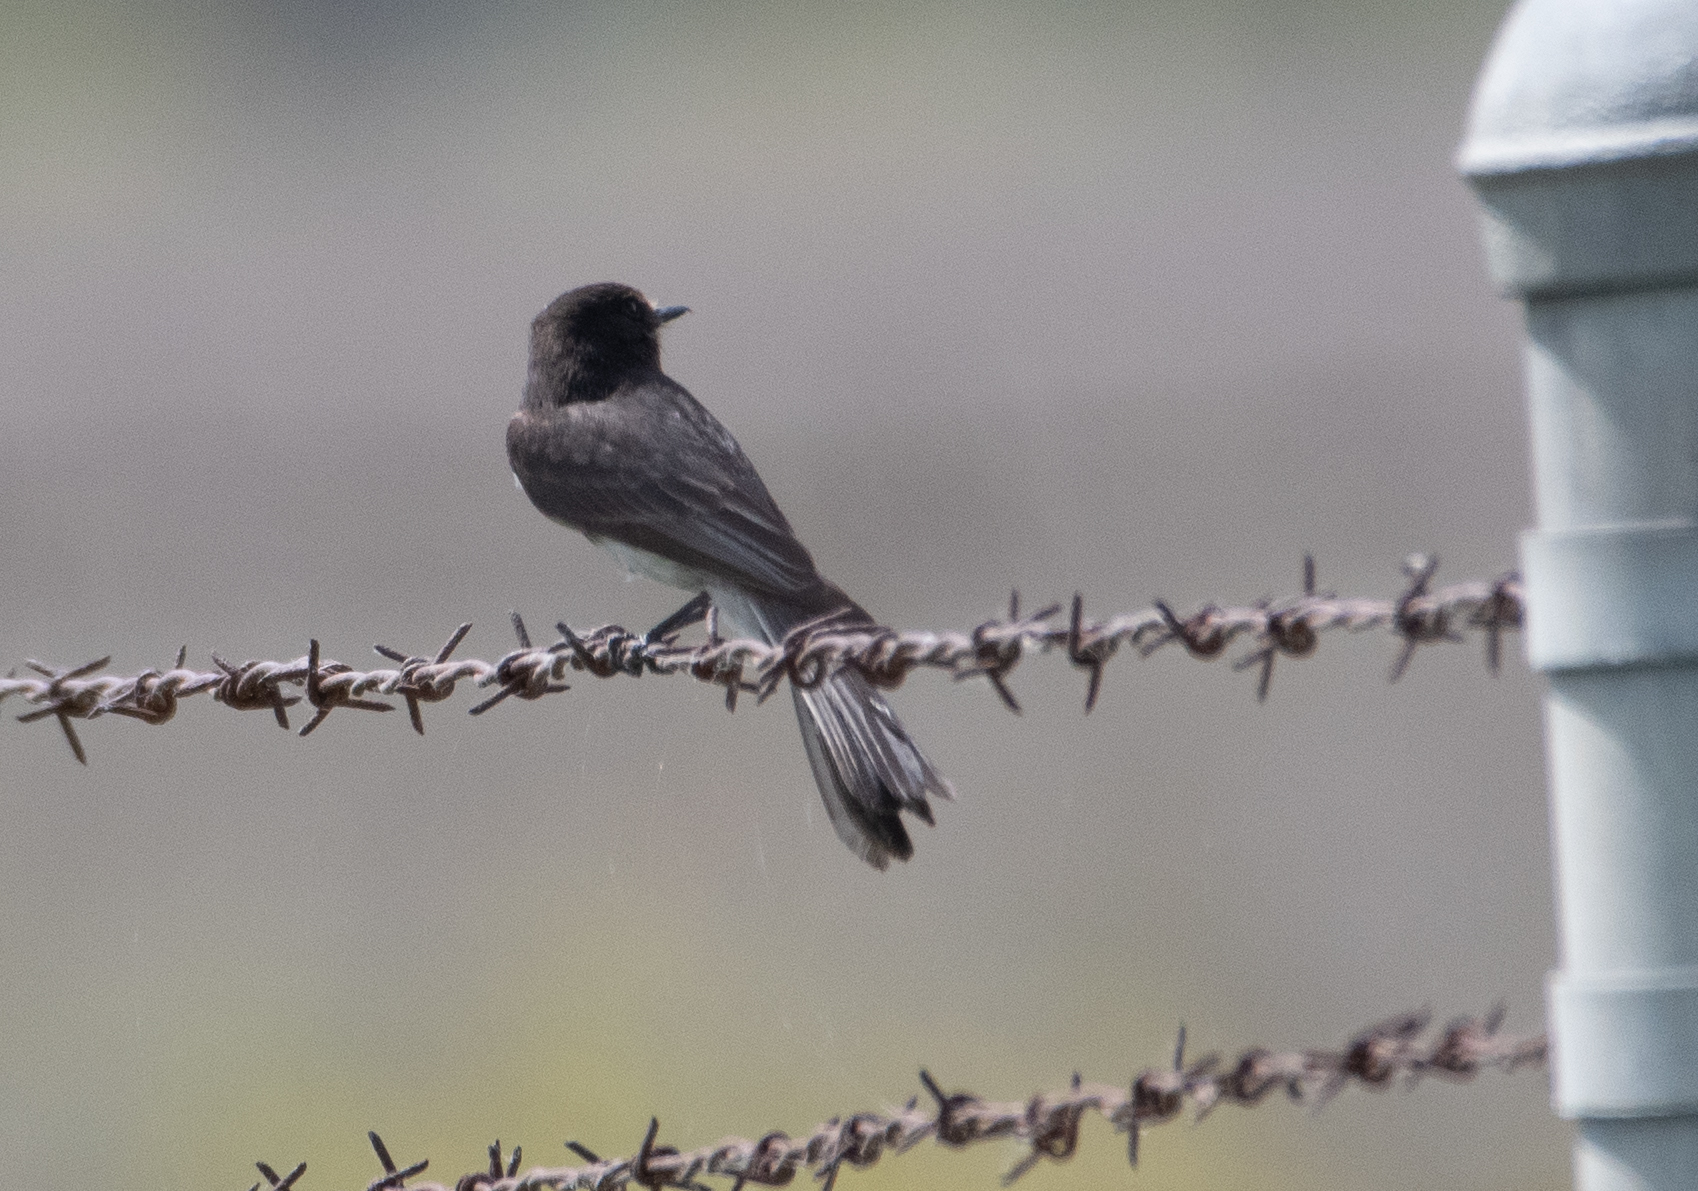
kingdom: Animalia
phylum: Chordata
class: Aves
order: Passeriformes
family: Tyrannidae
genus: Sayornis
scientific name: Sayornis nigricans
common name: Black phoebe
